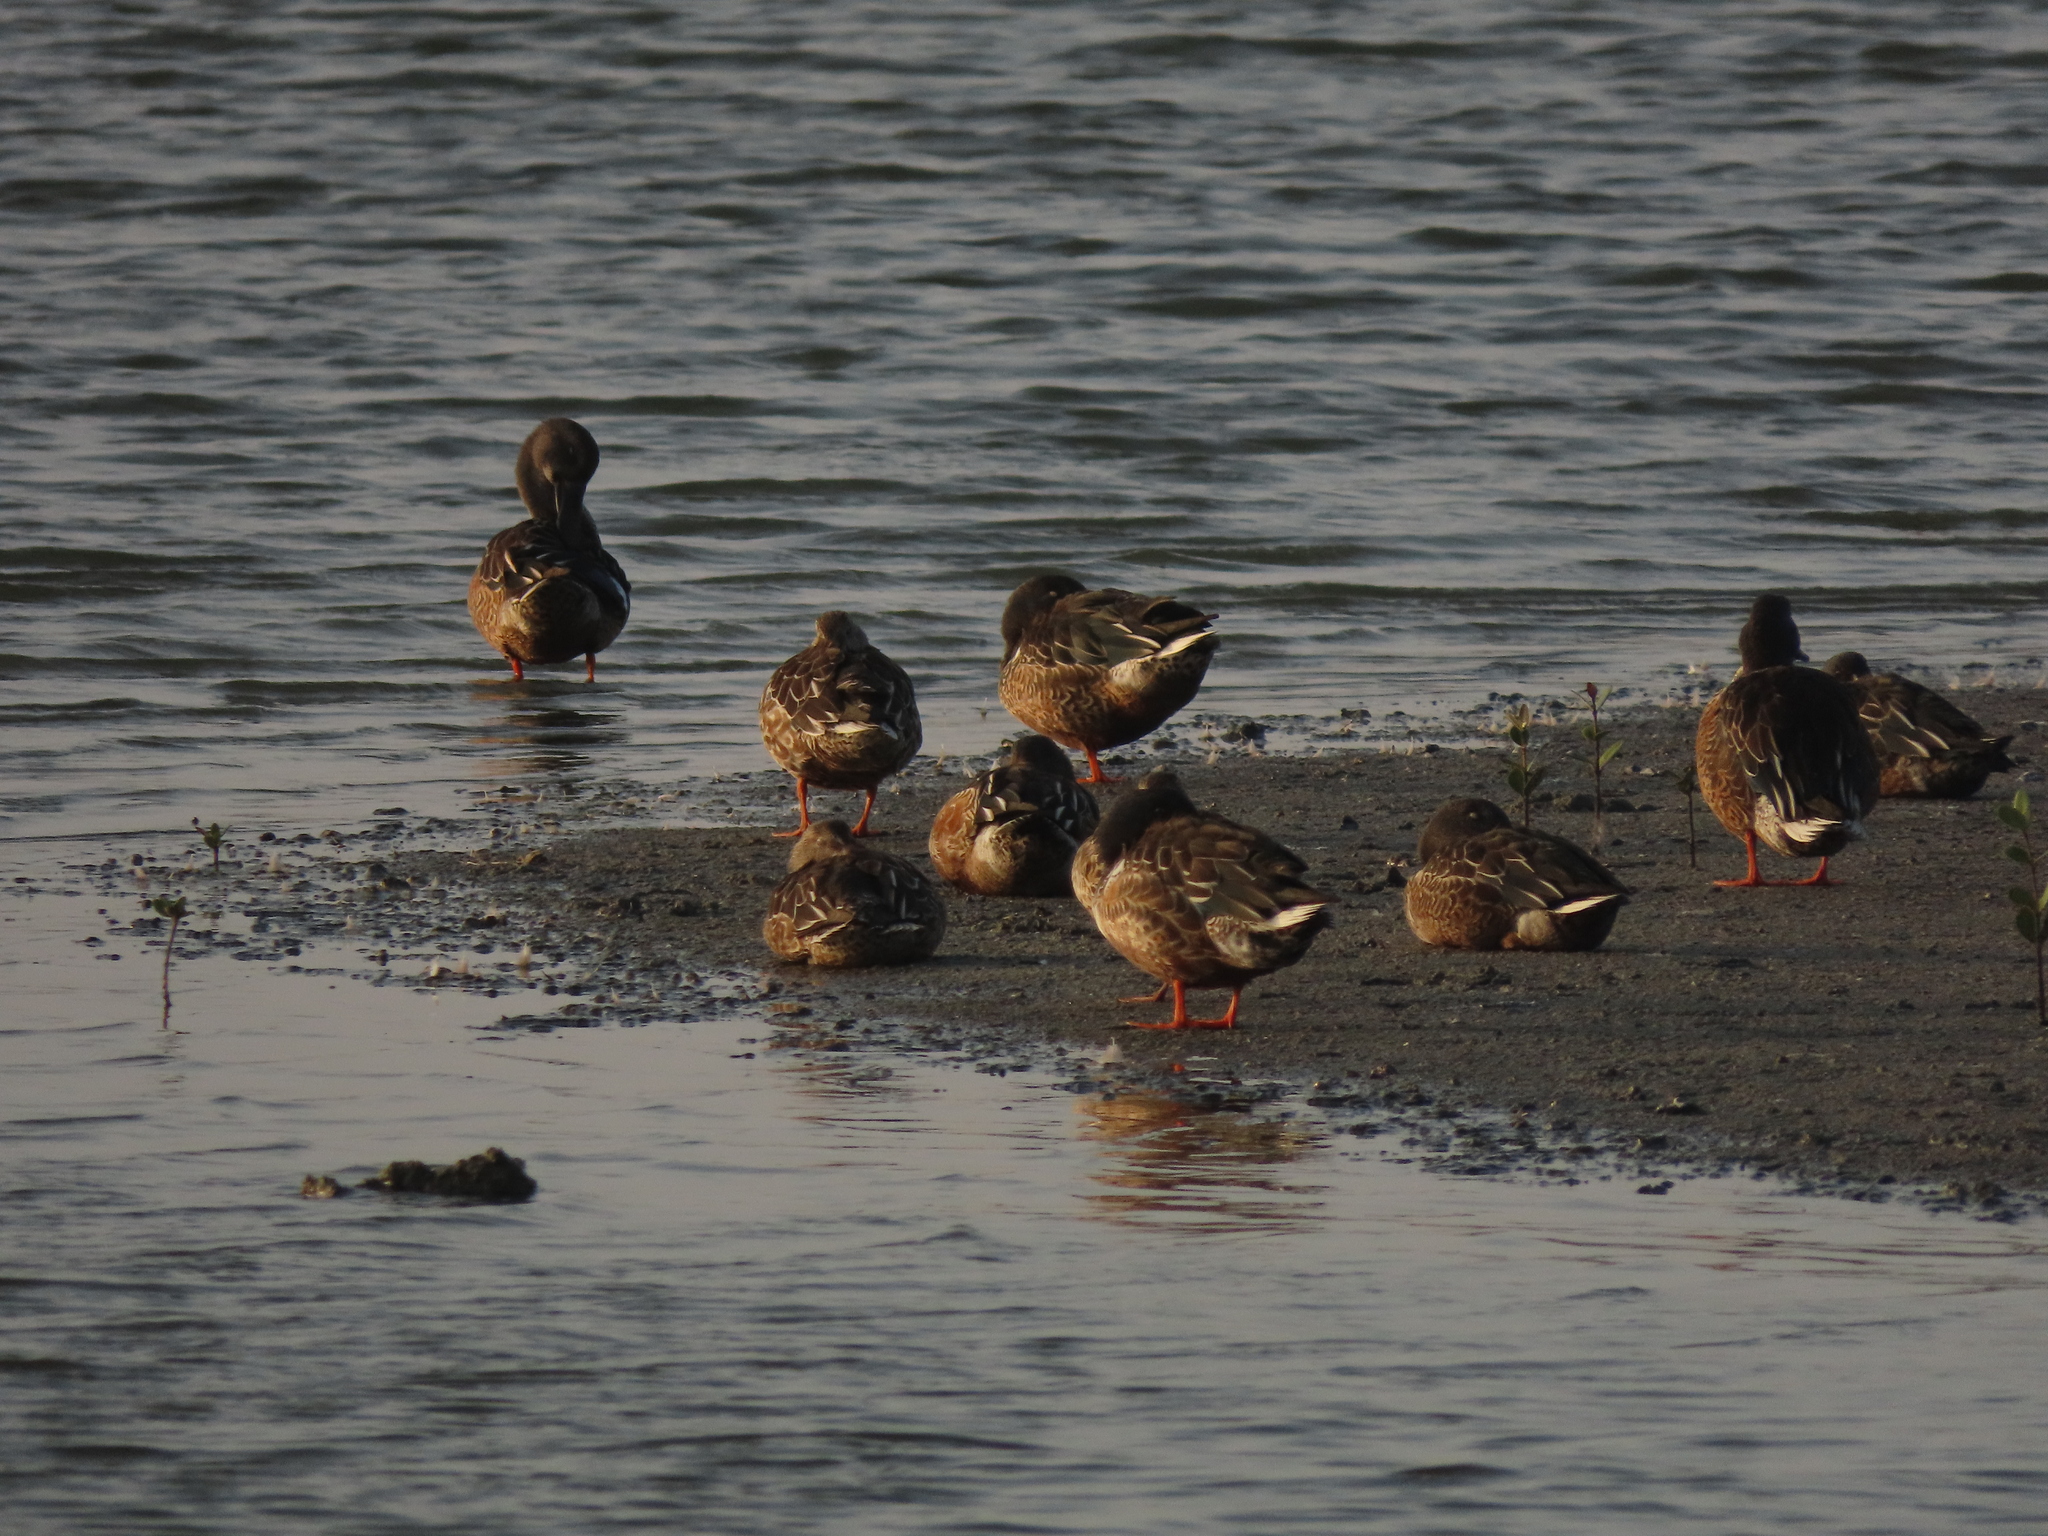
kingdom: Animalia
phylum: Chordata
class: Aves
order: Anseriformes
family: Anatidae
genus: Spatula
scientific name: Spatula clypeata
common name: Northern shoveler
